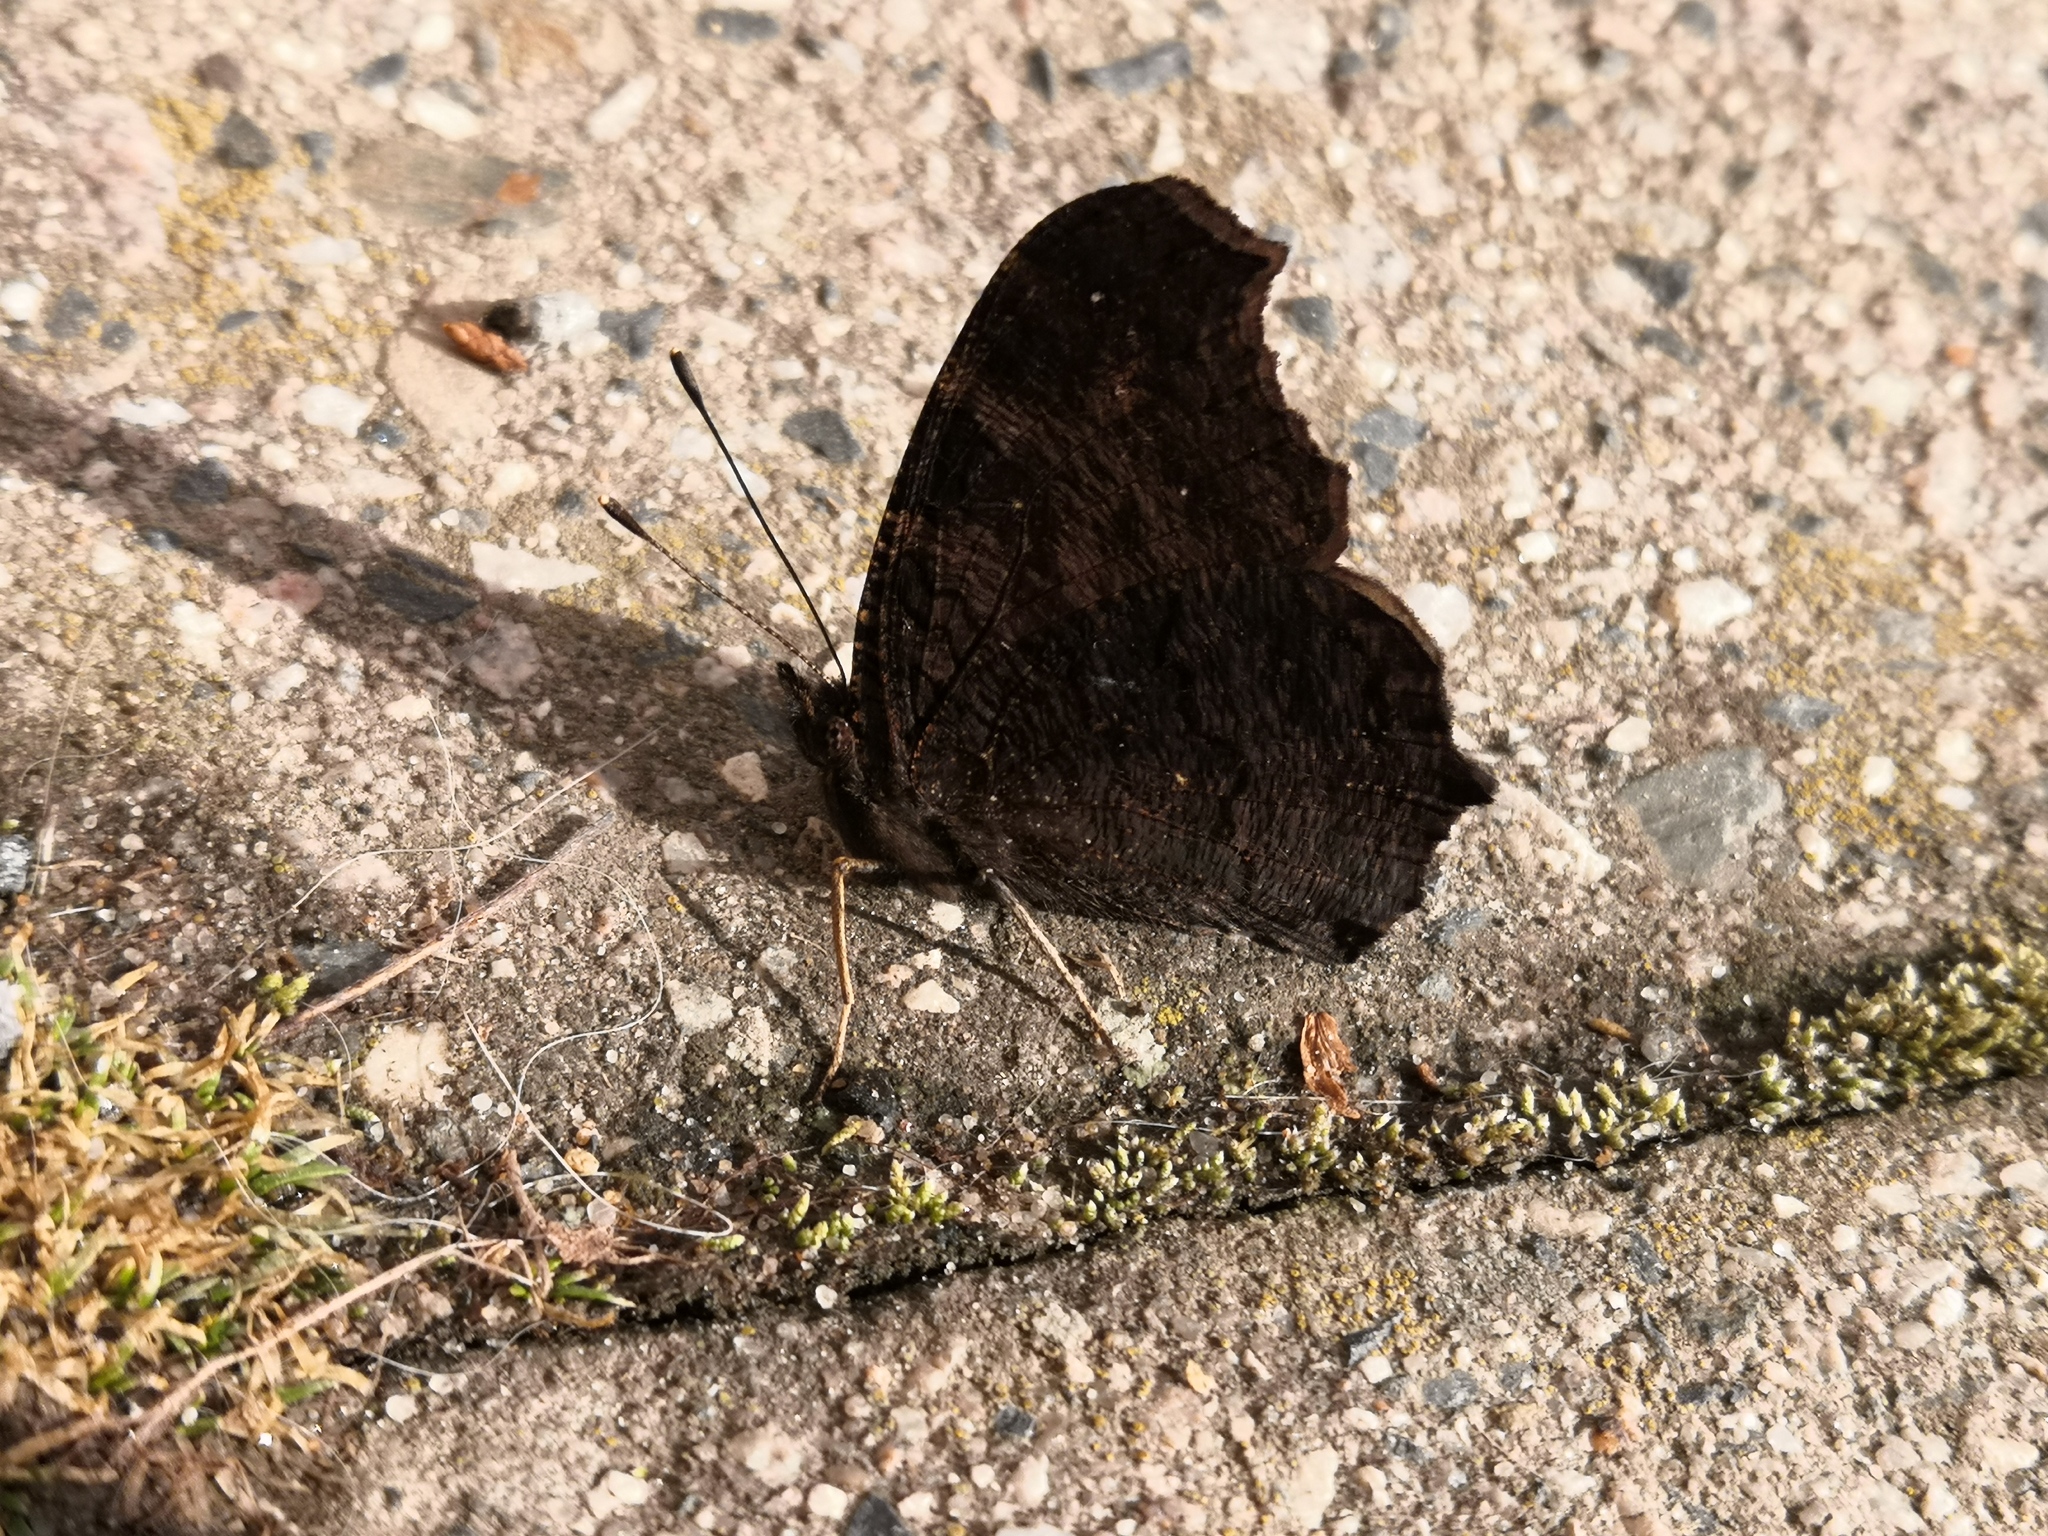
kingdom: Animalia
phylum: Arthropoda
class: Insecta
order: Lepidoptera
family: Nymphalidae
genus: Aglais
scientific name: Aglais io
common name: Peacock
